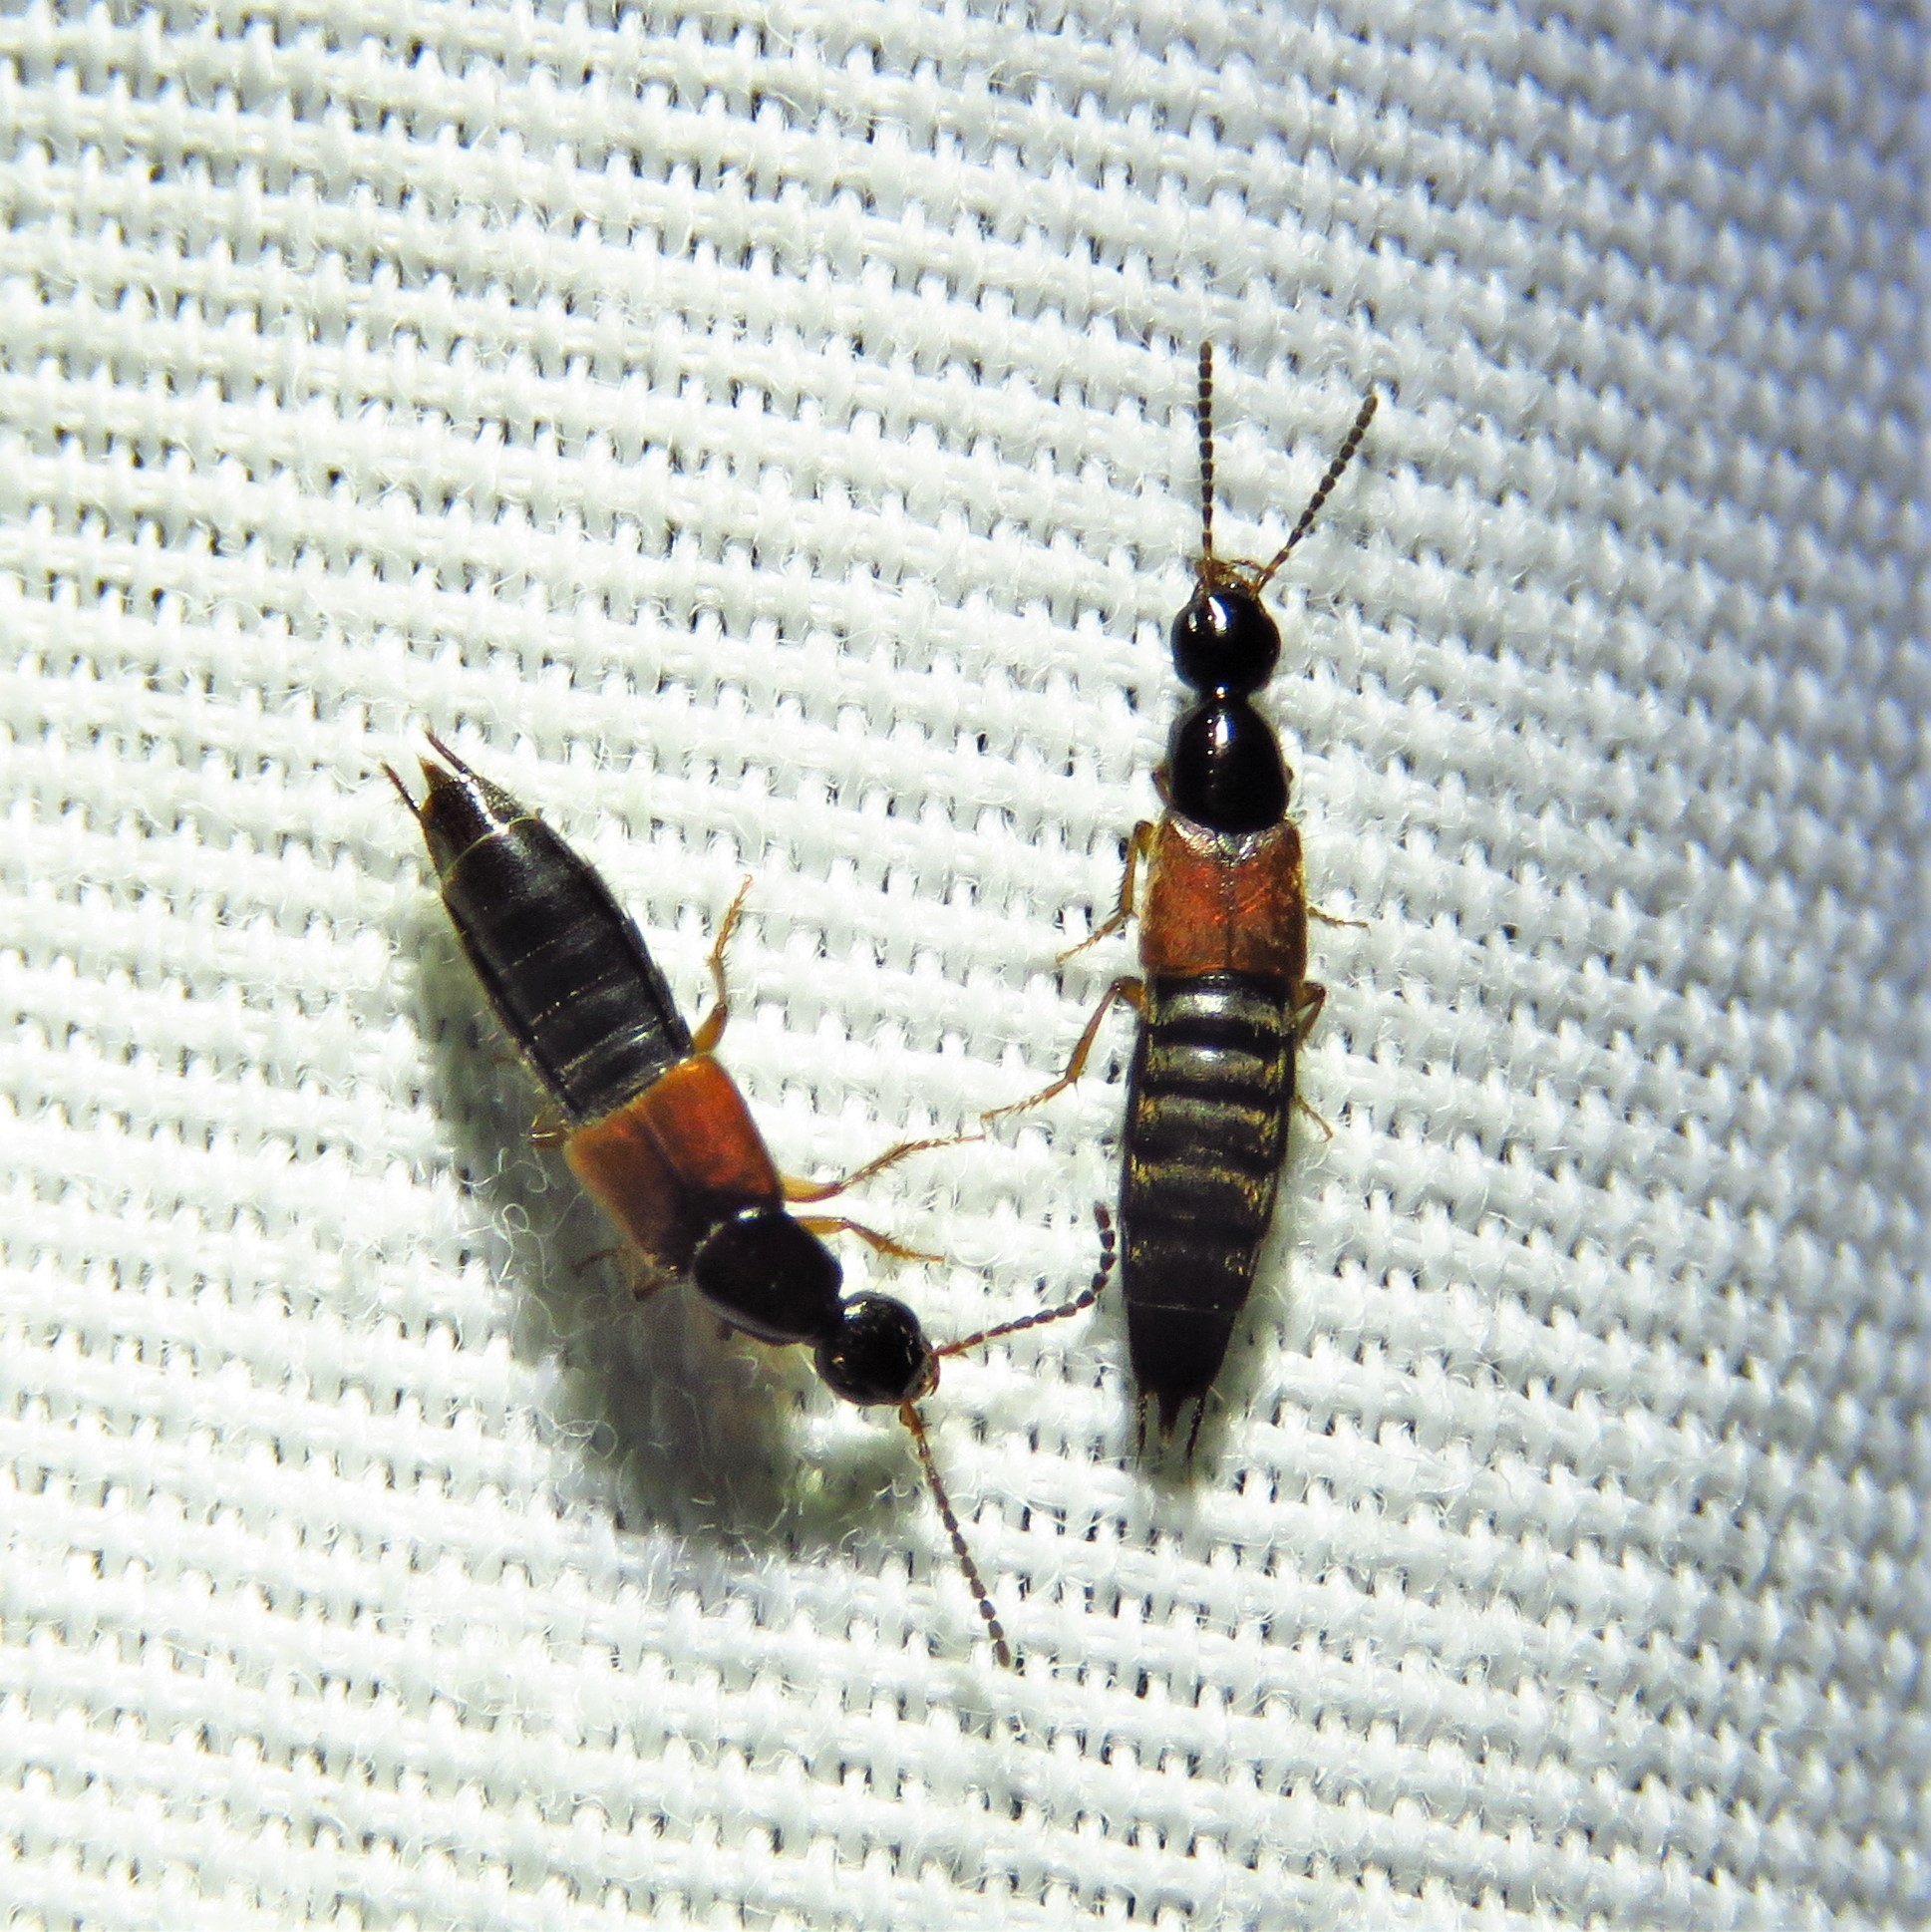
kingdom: Animalia
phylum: Arthropoda
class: Insecta
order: Coleoptera
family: Staphylinidae
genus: Philonthus
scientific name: Philonthus rufulus
